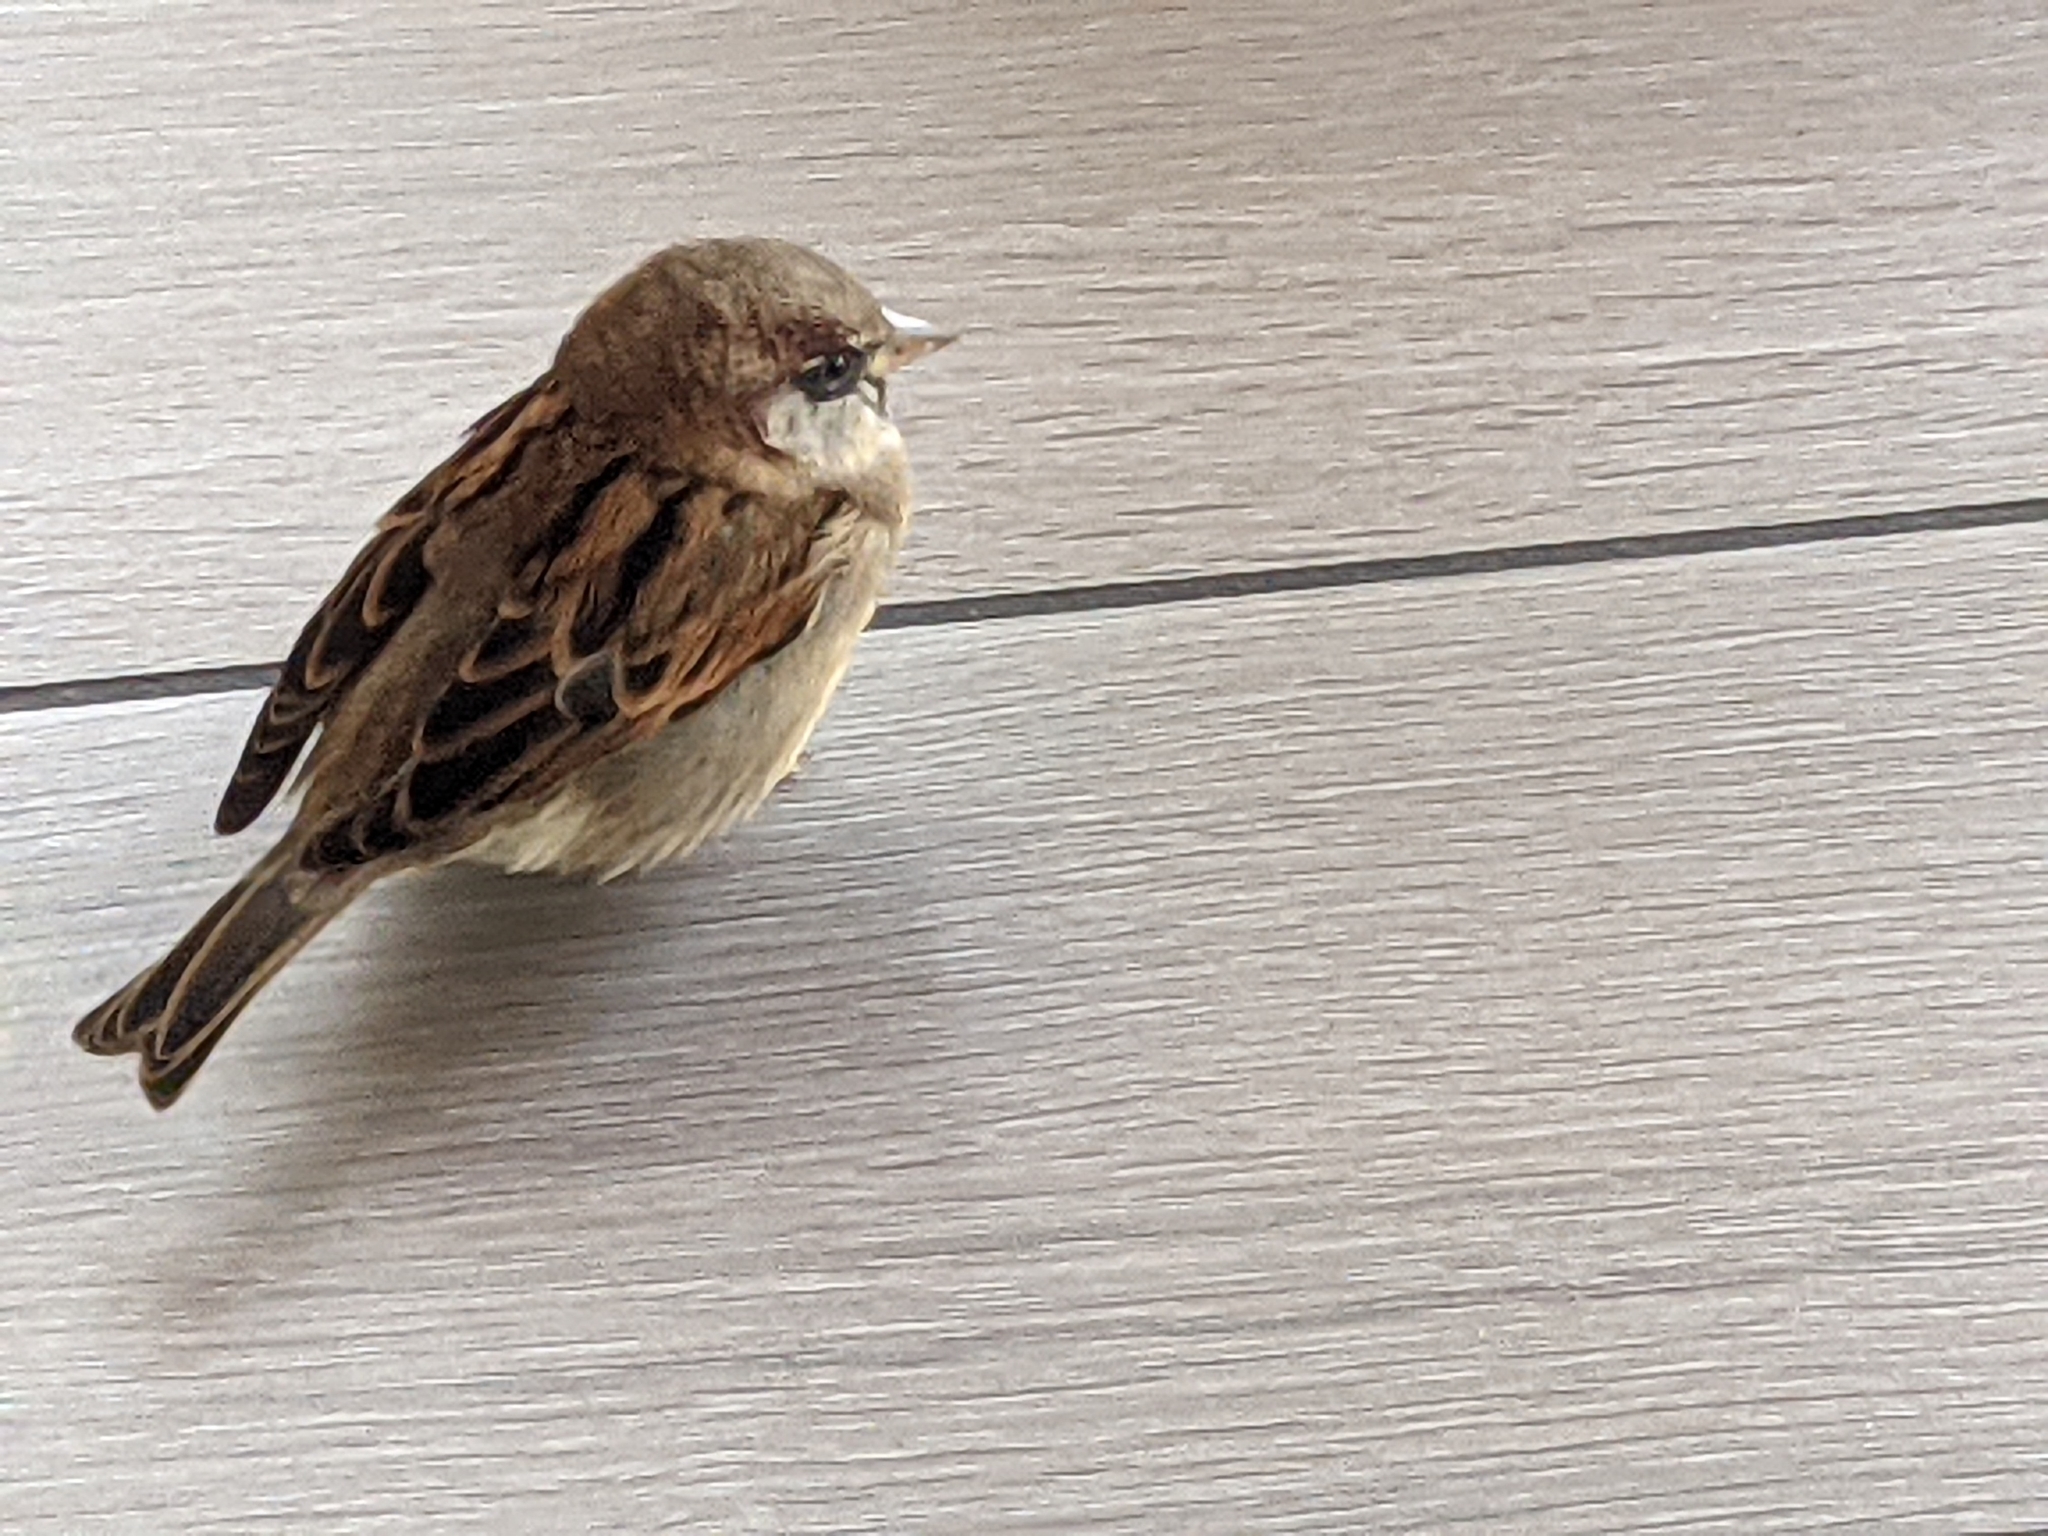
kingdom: Animalia
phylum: Chordata
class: Aves
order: Passeriformes
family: Passeridae
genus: Passer
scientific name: Passer domesticus
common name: House sparrow
